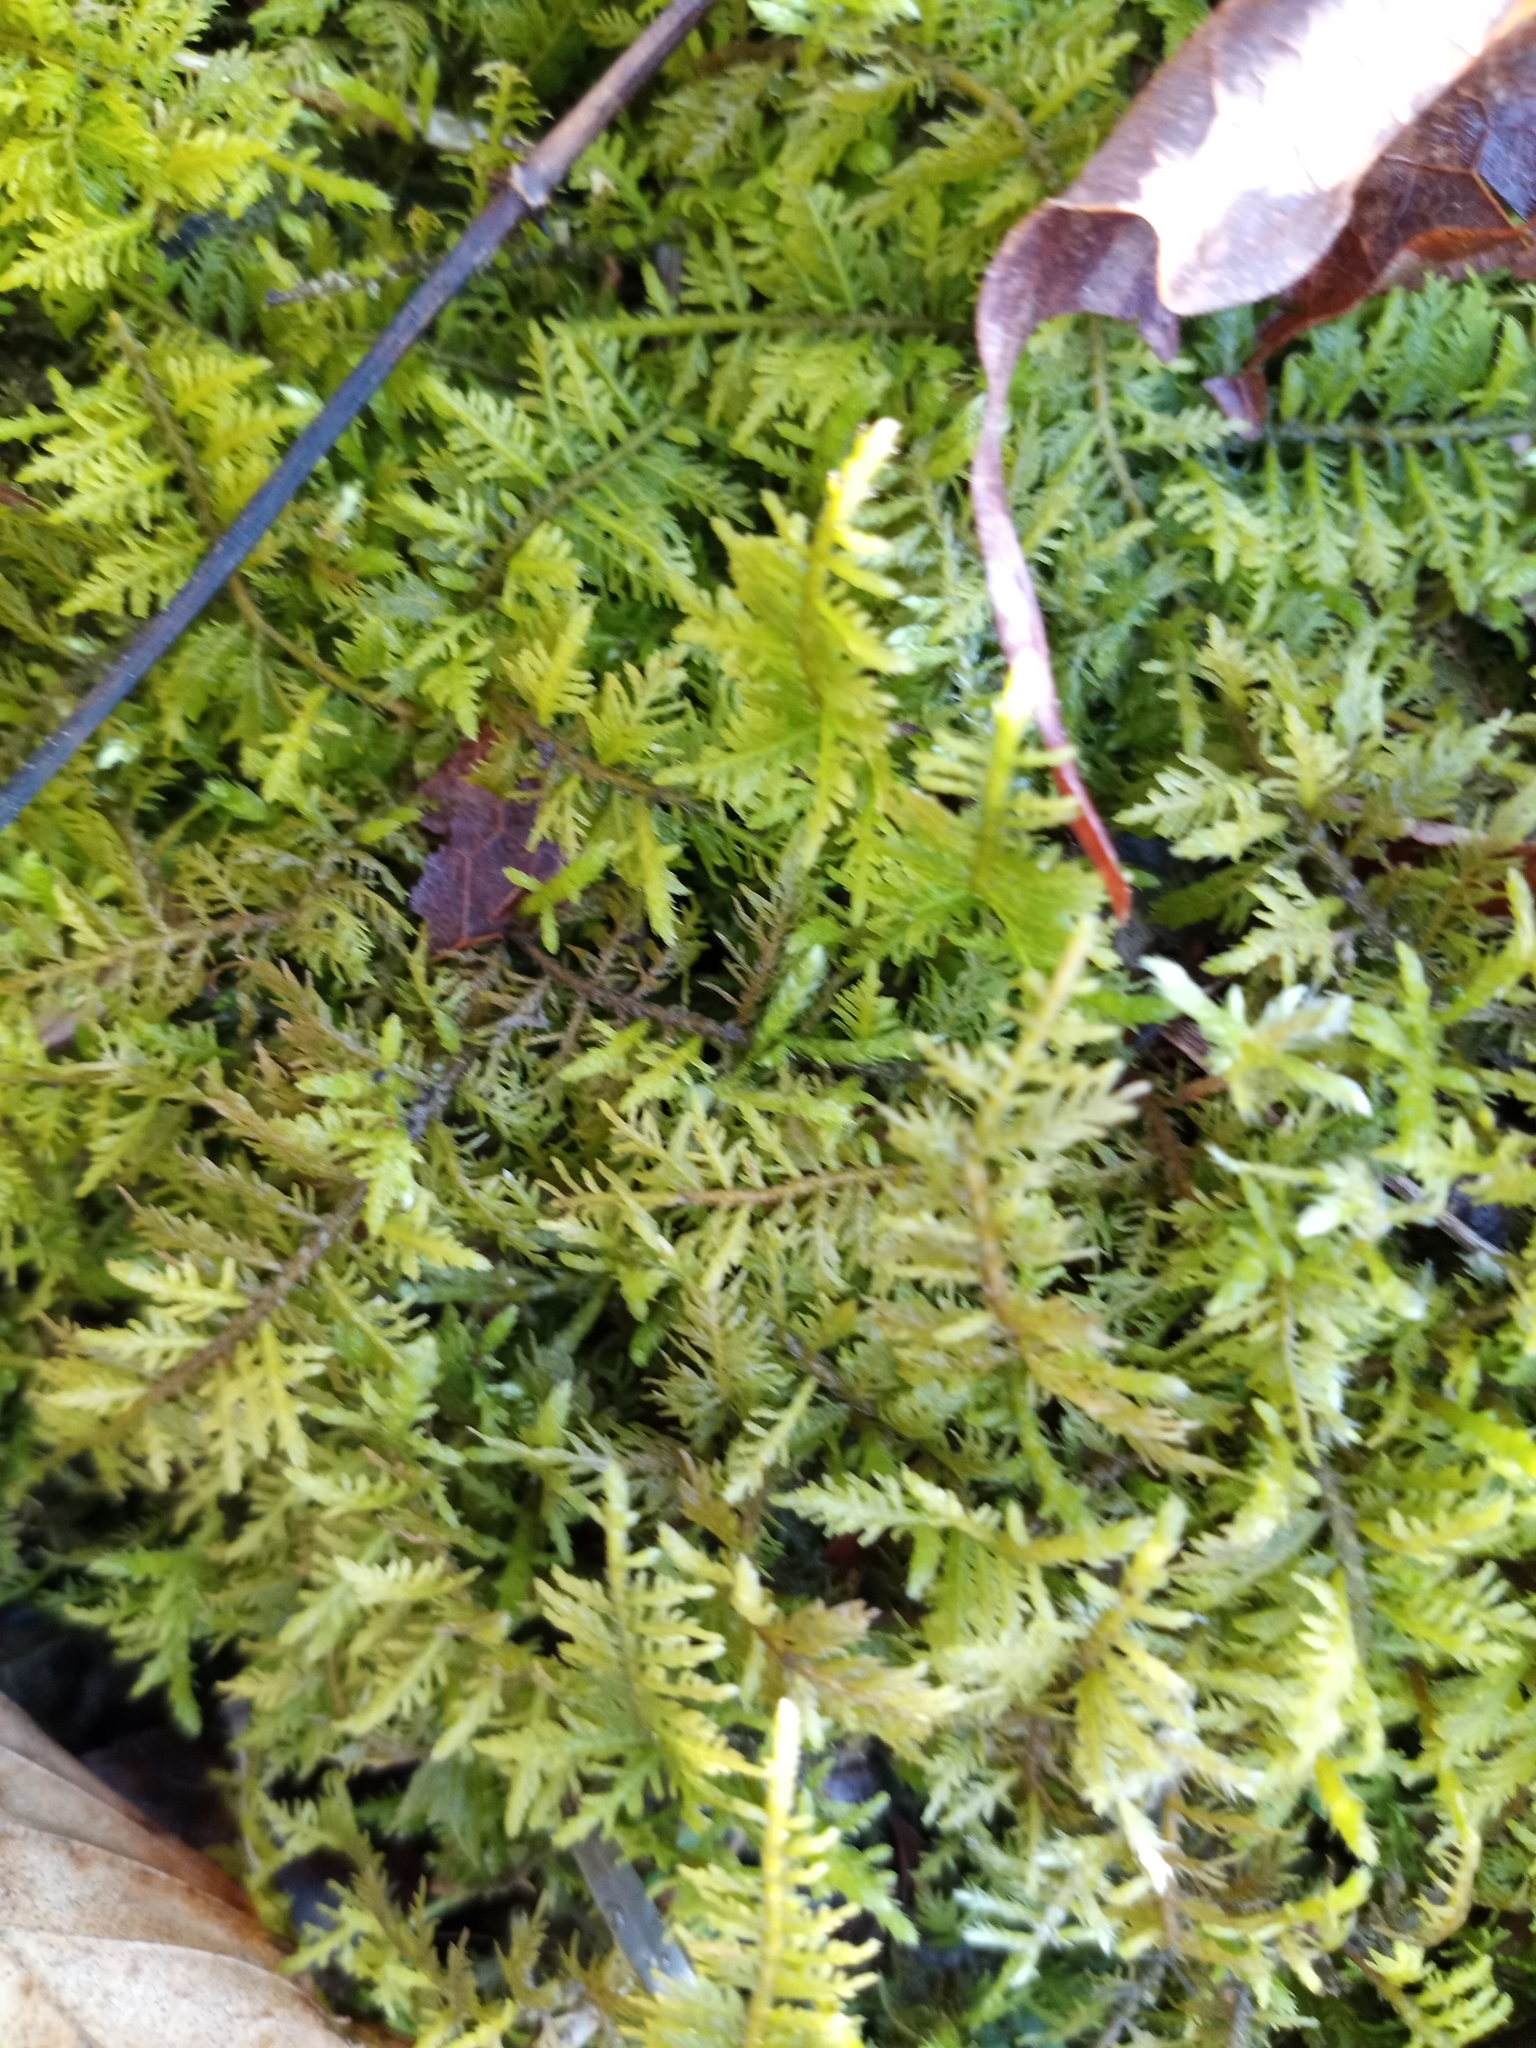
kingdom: Plantae
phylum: Bryophyta
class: Bryopsida
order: Hypnales
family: Thuidiaceae
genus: Thuidium
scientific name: Thuidium delicatulum
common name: Delicate fern moss
